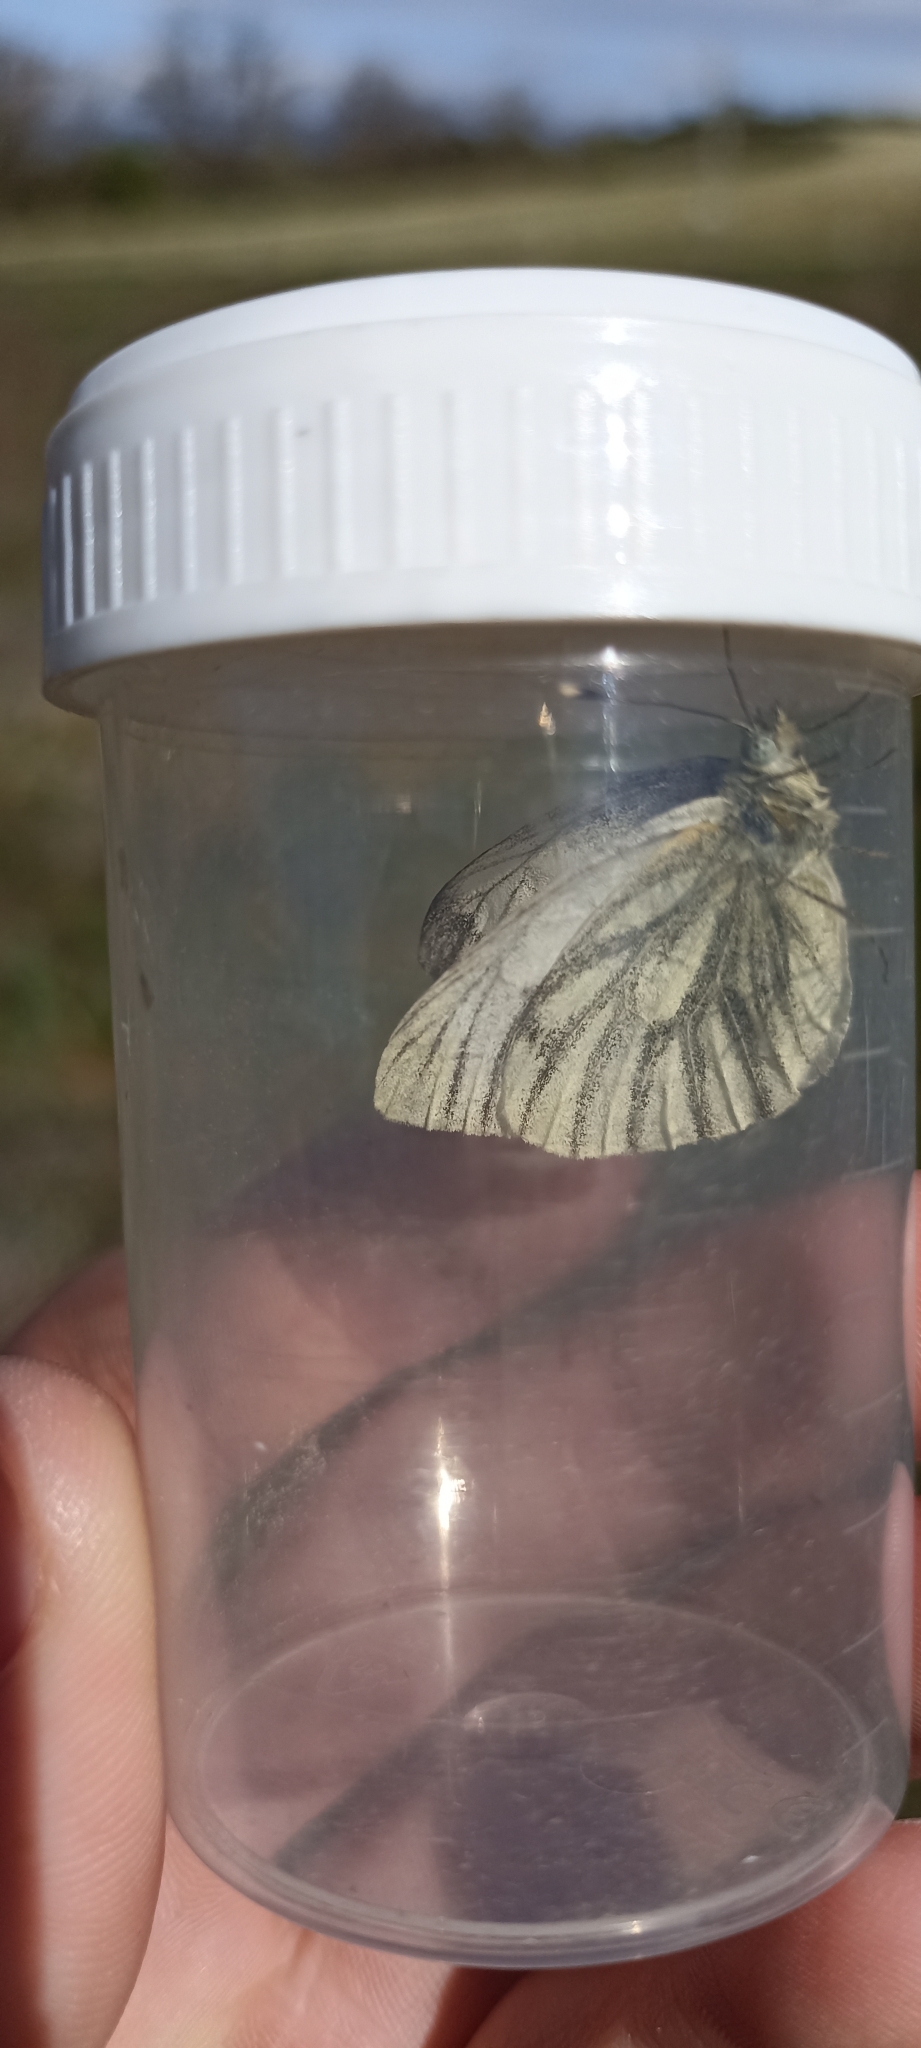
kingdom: Animalia
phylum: Arthropoda
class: Insecta
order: Lepidoptera
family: Pieridae
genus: Pieris
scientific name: Pieris napi
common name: Green-veined white
